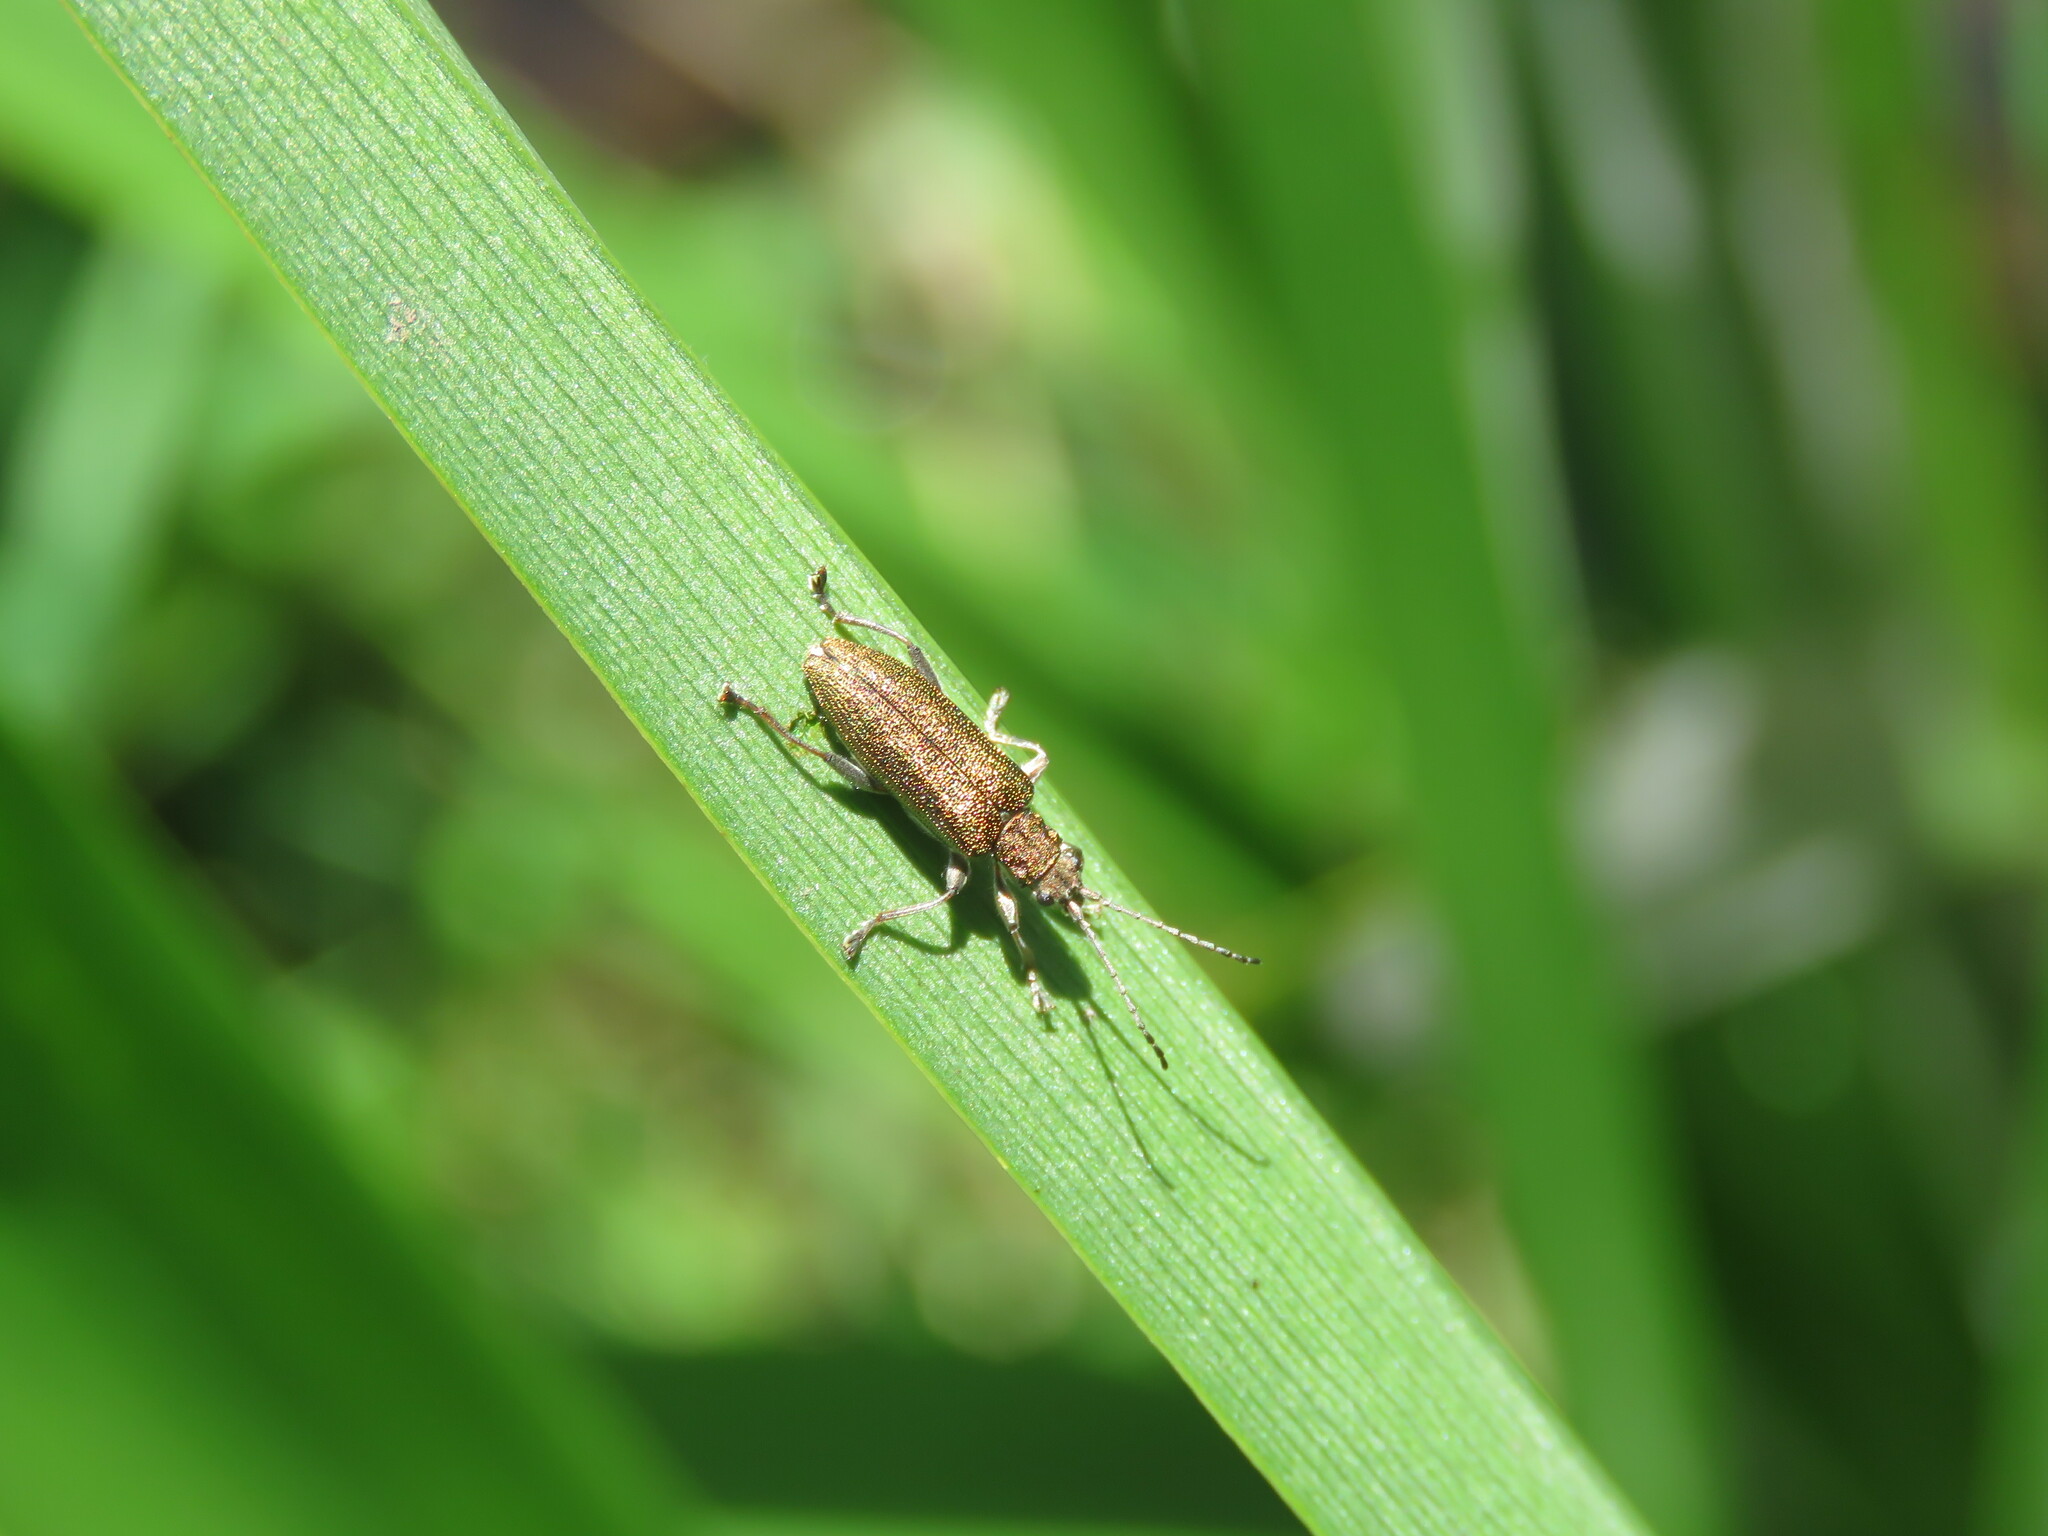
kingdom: Animalia
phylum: Arthropoda
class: Insecta
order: Coleoptera
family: Chrysomelidae
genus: Donacia
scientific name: Donacia simplex
